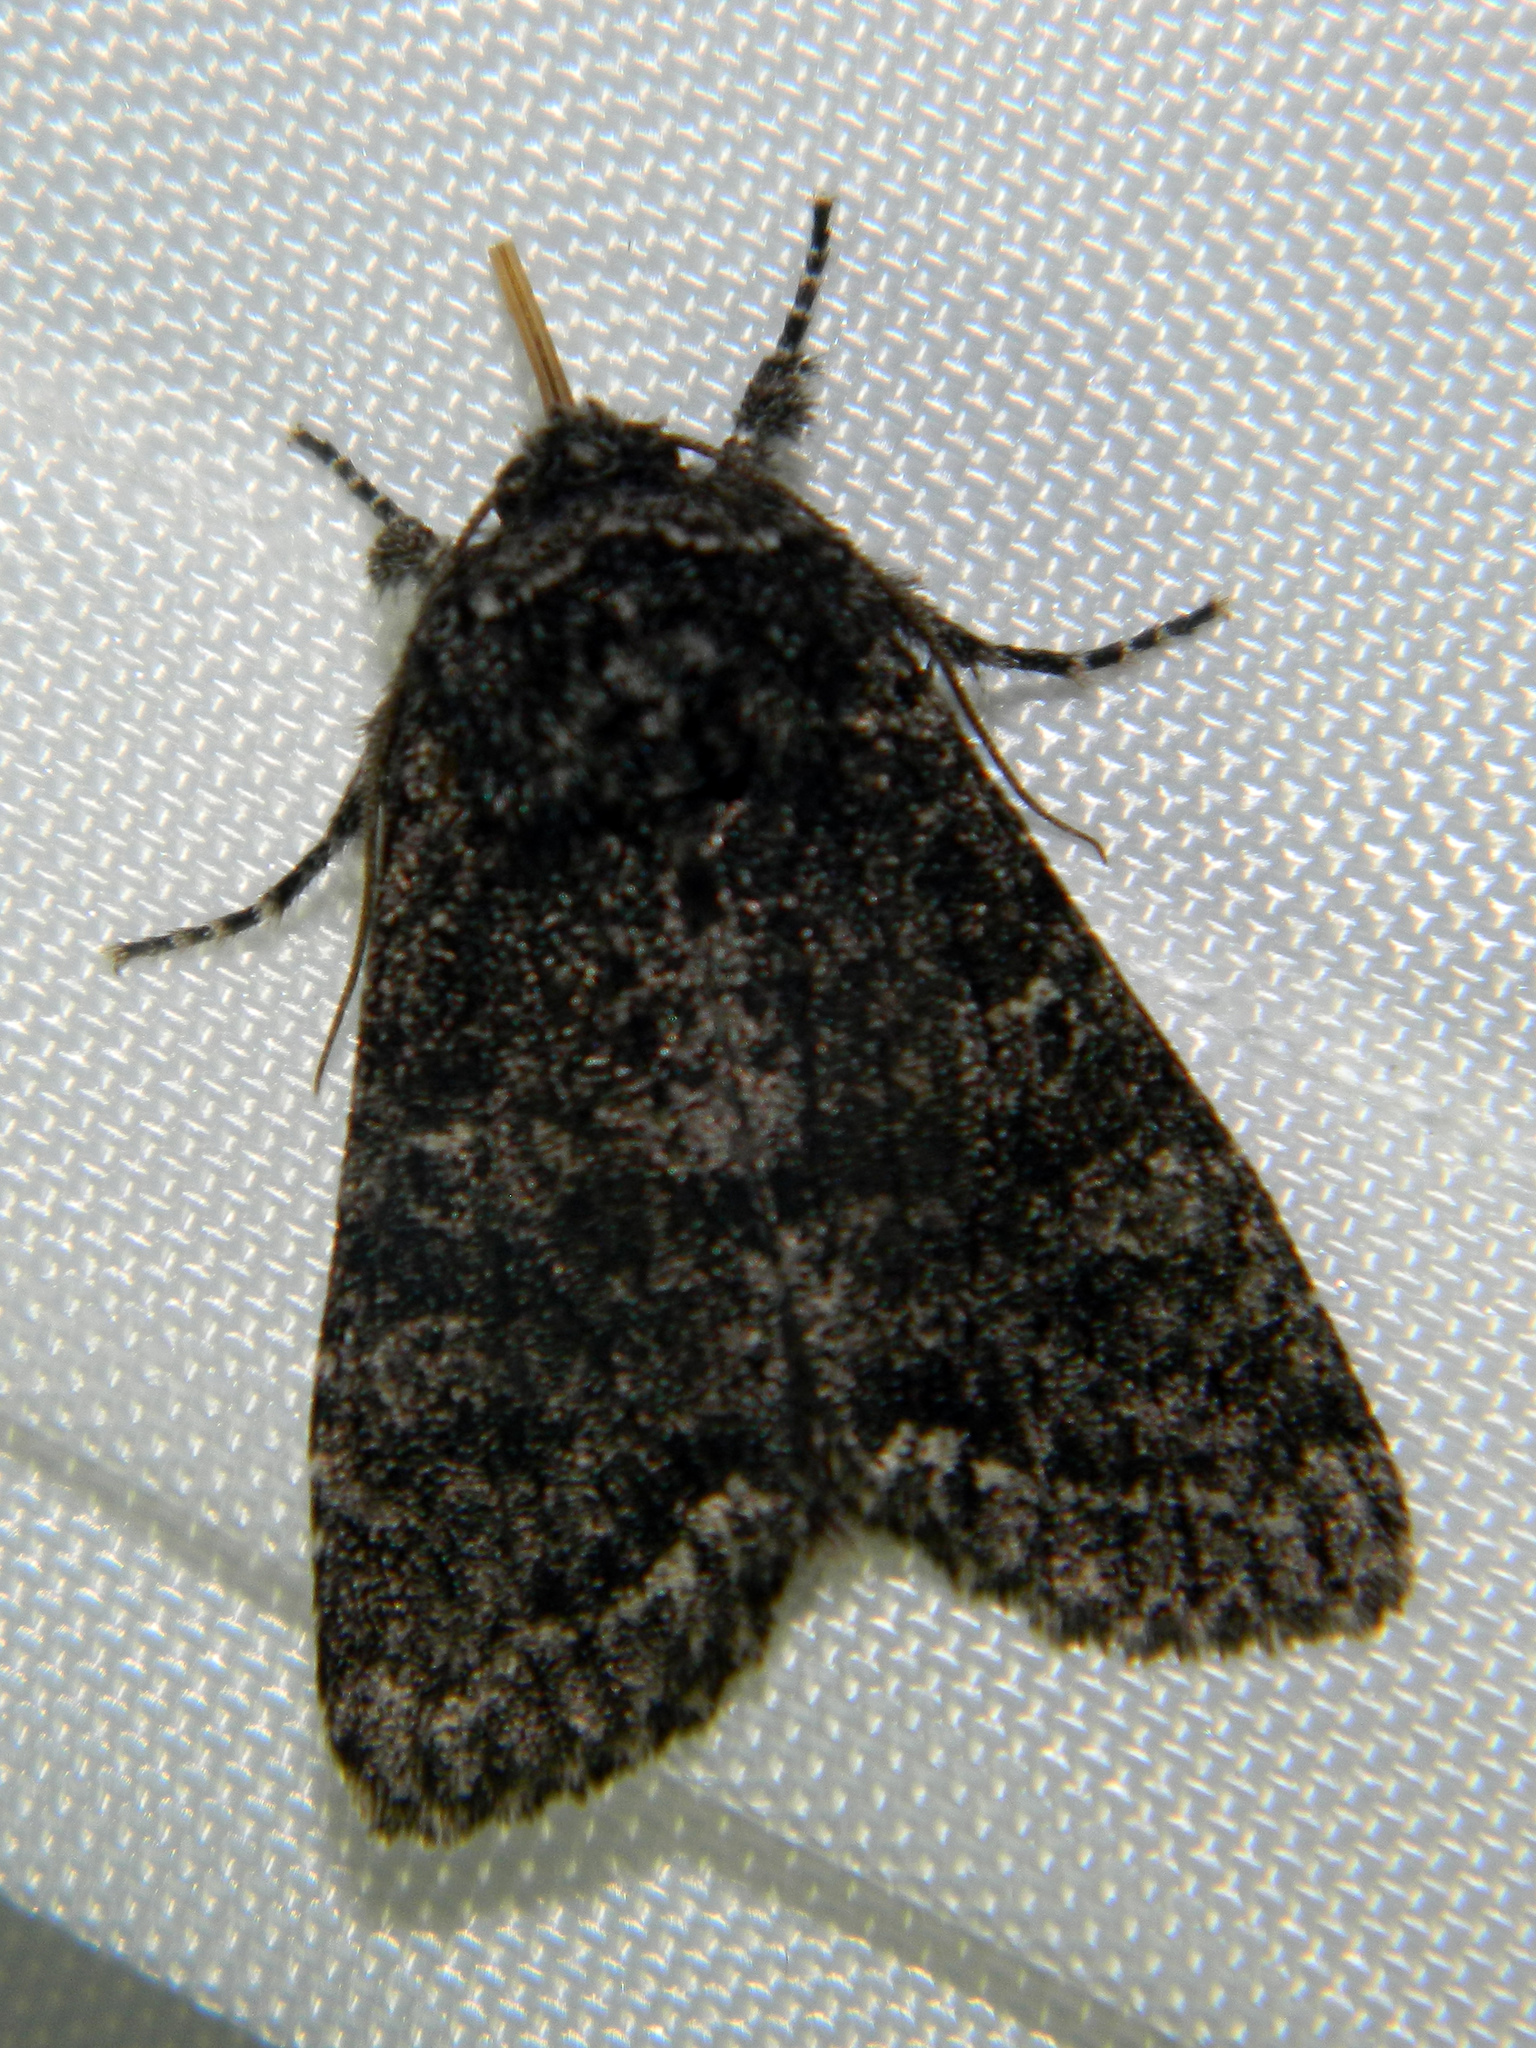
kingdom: Animalia
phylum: Arthropoda
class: Insecta
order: Lepidoptera
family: Noctuidae
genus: Egira
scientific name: Egira dolosa
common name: Lined black aspen cat.
